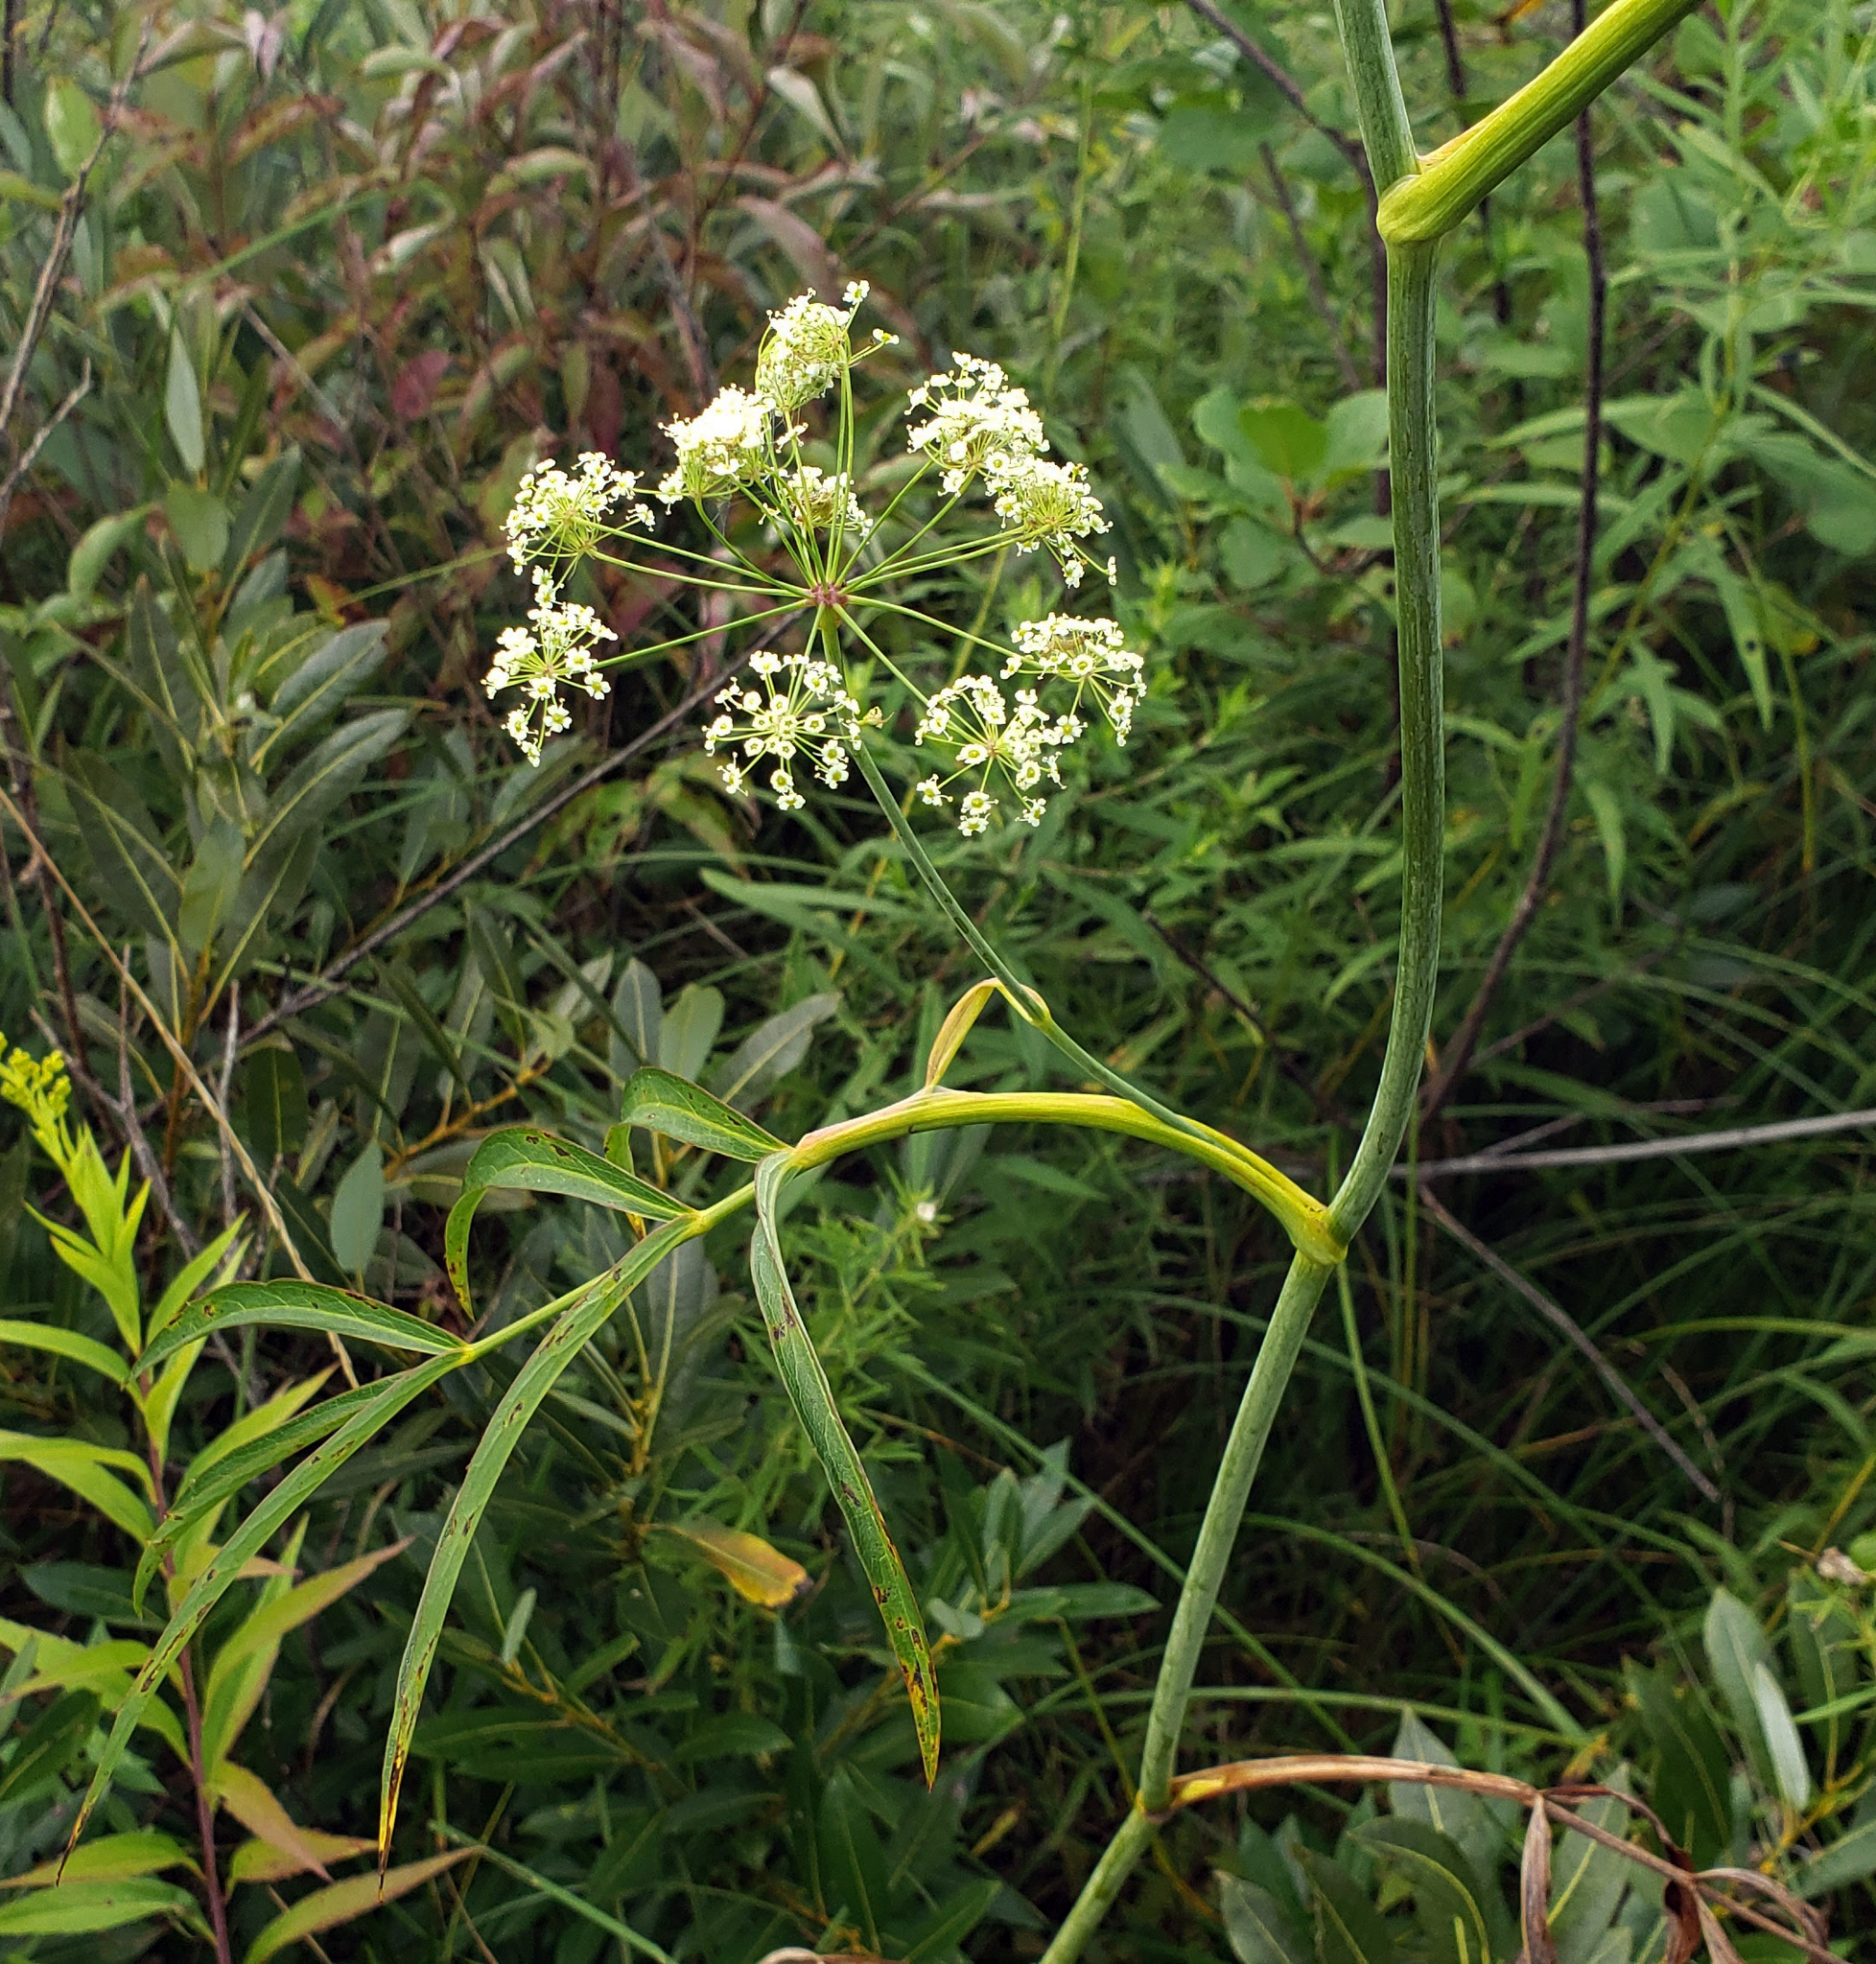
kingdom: Plantae
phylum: Tracheophyta
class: Magnoliopsida
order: Apiales
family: Apiaceae
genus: Oxypolis
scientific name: Oxypolis rigidior
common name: Cowbane
